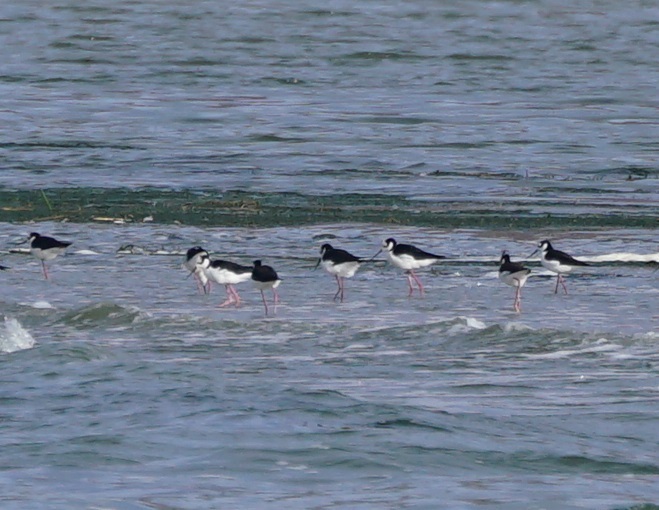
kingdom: Animalia
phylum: Chordata
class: Aves
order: Charadriiformes
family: Recurvirostridae
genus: Himantopus
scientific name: Himantopus mexicanus
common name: Black-necked stilt
